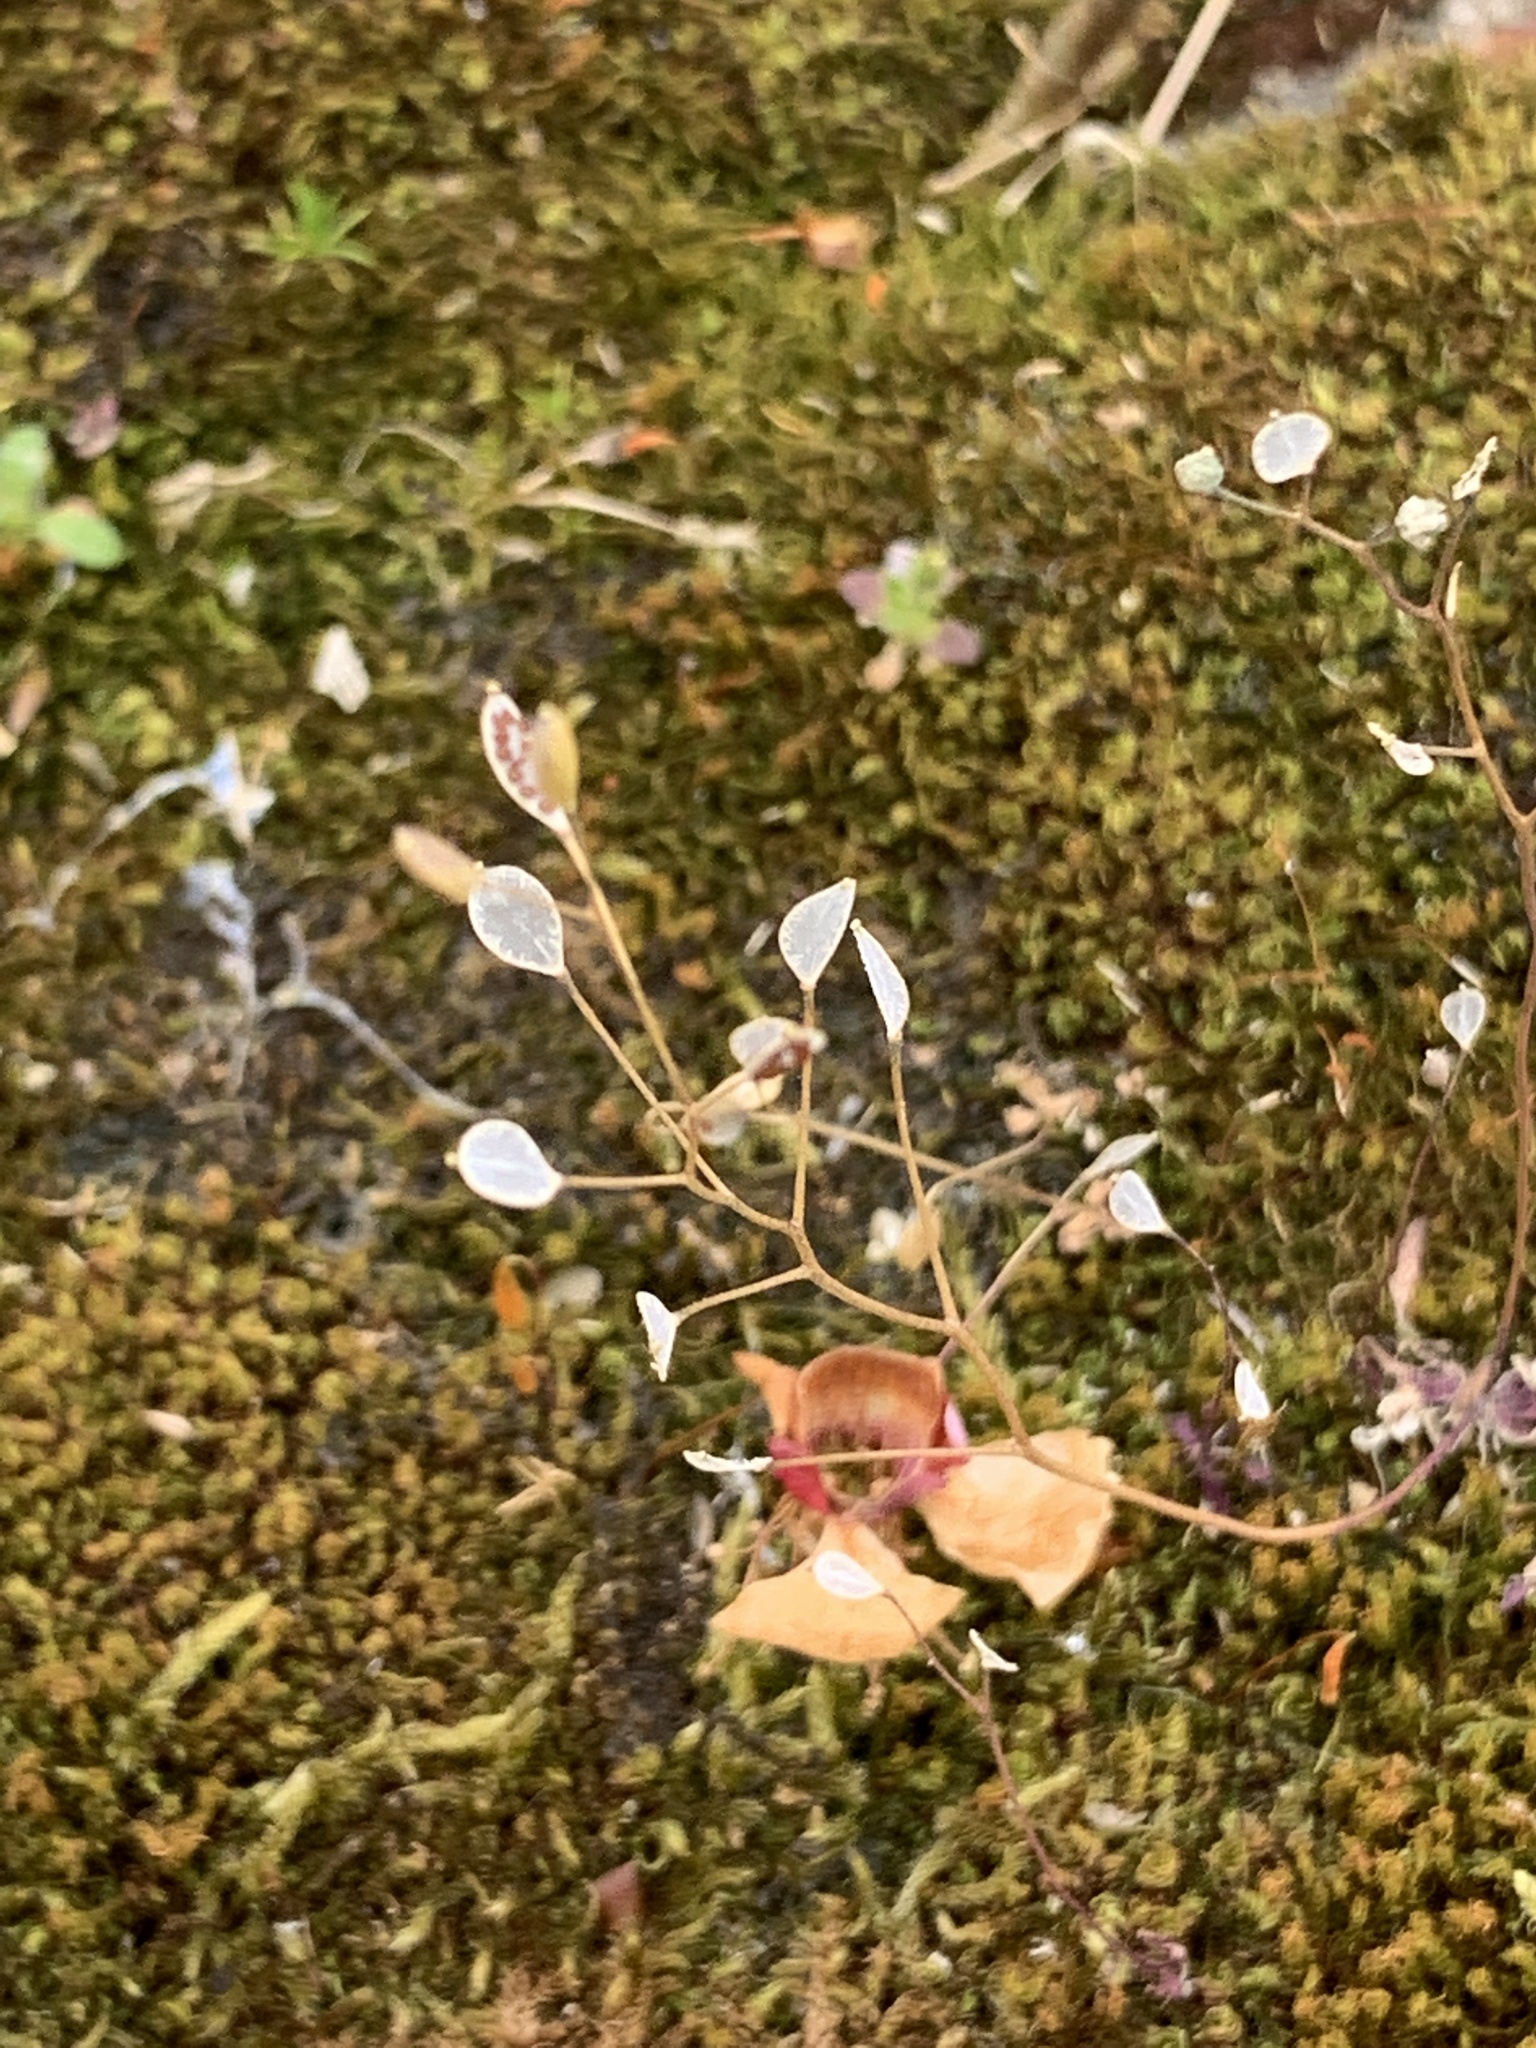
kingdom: Plantae
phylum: Tracheophyta
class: Magnoliopsida
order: Brassicales
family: Brassicaceae
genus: Draba
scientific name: Draba verna
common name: Spring draba
